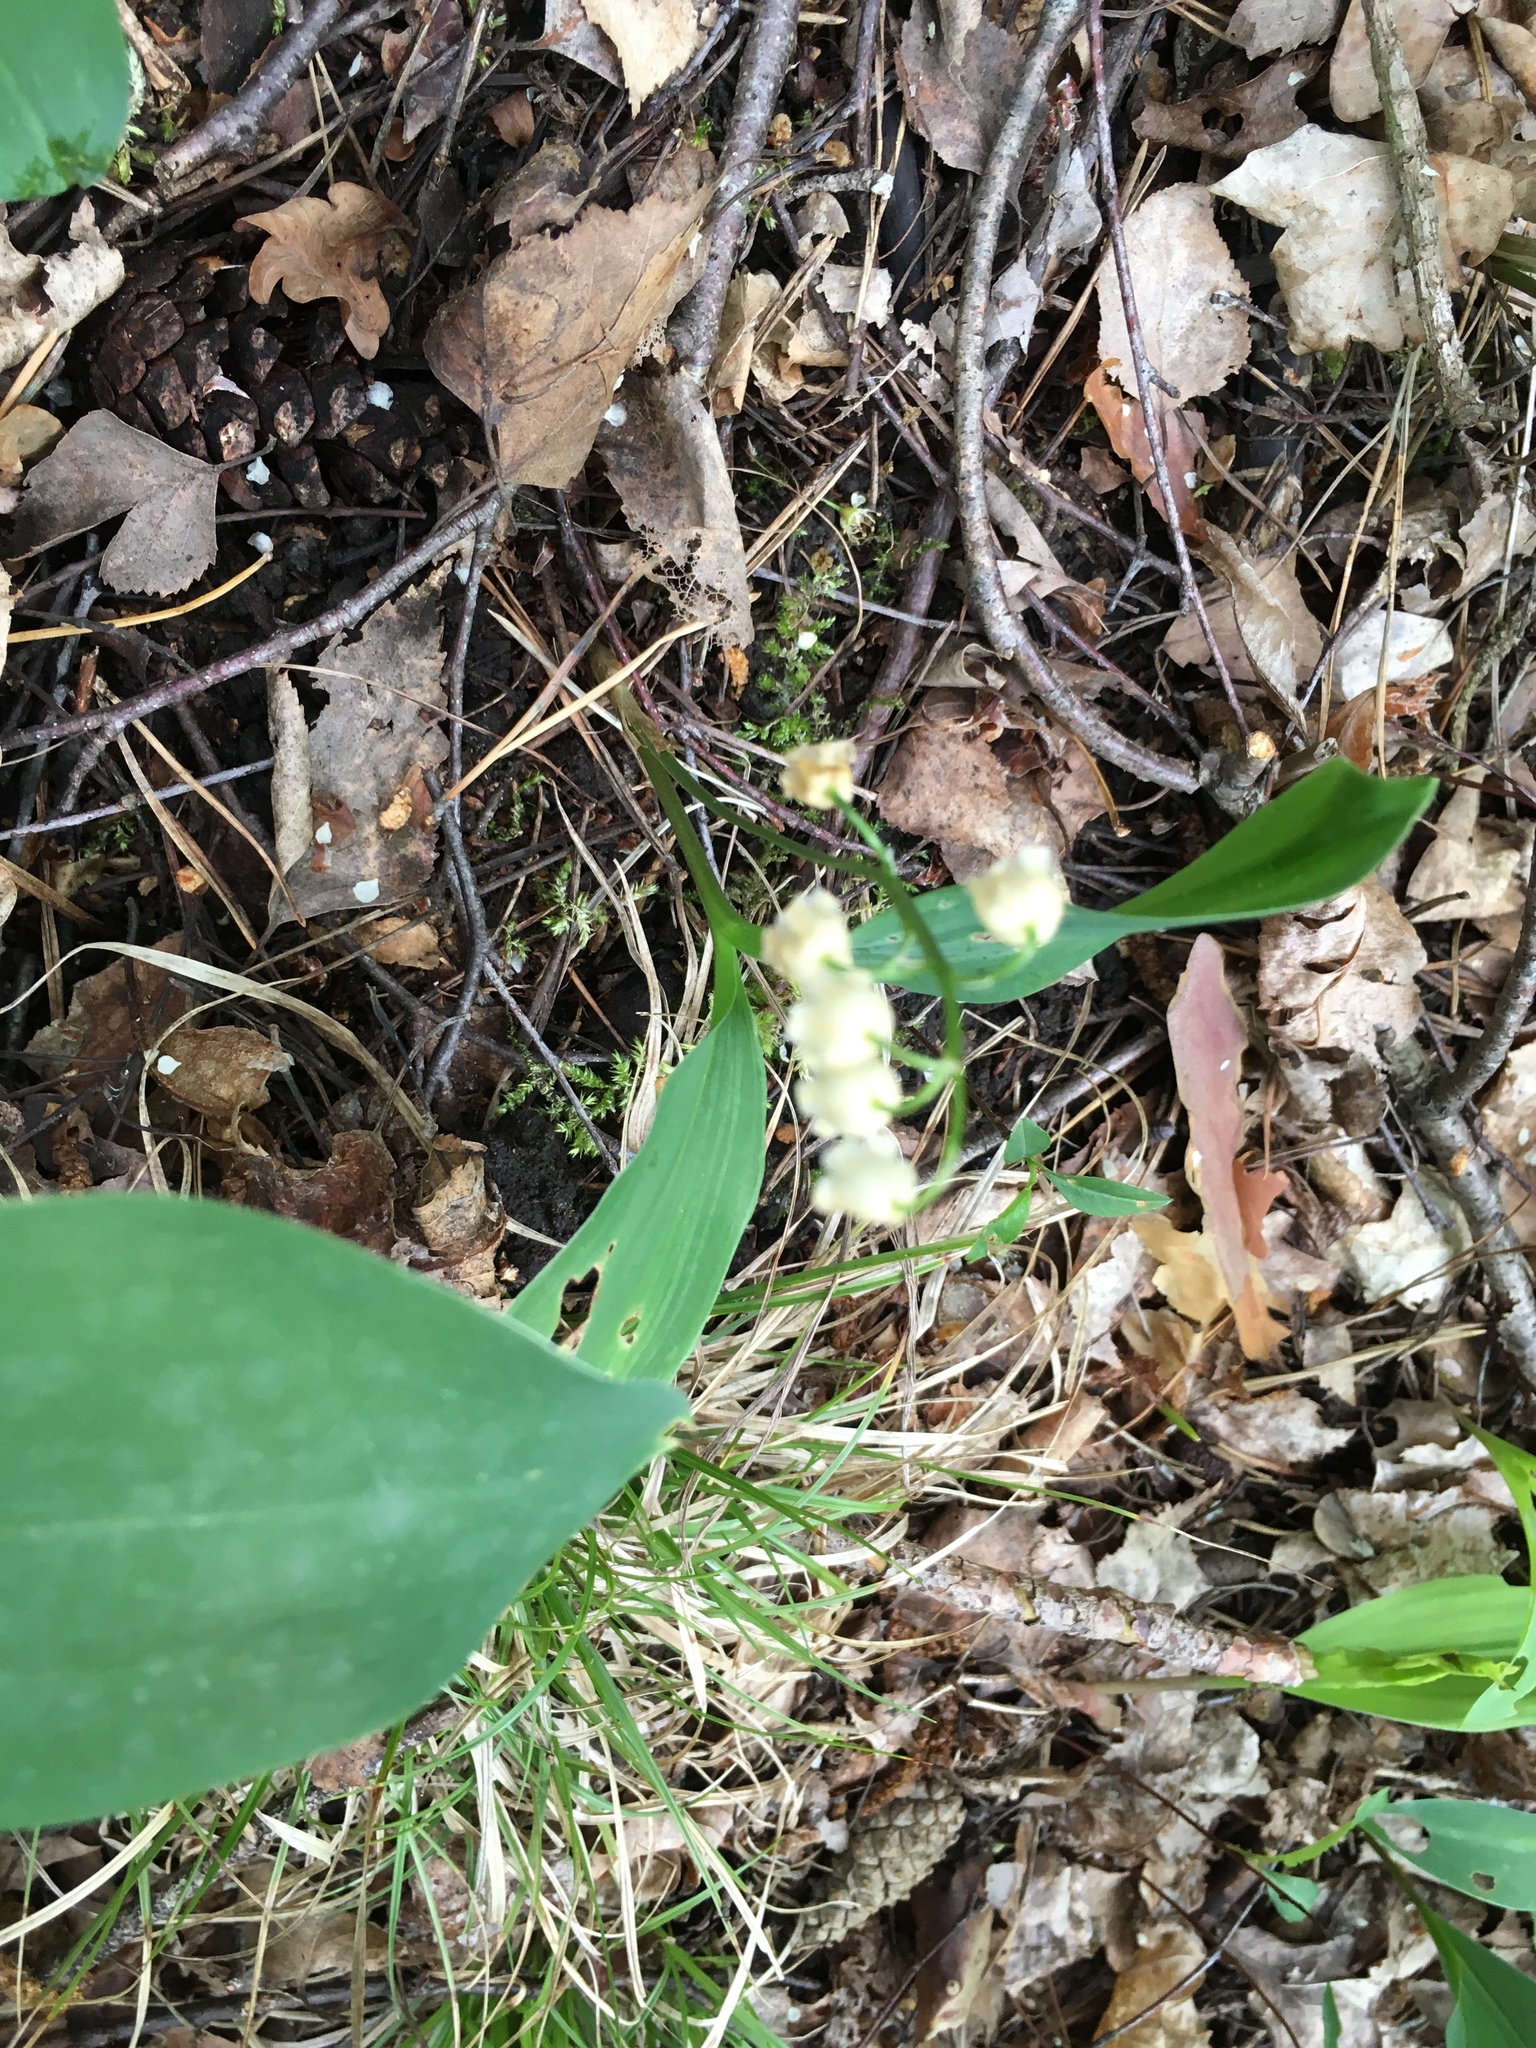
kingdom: Plantae
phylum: Tracheophyta
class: Liliopsida
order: Asparagales
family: Asparagaceae
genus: Convallaria
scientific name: Convallaria majalis
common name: Lily-of-the-valley
